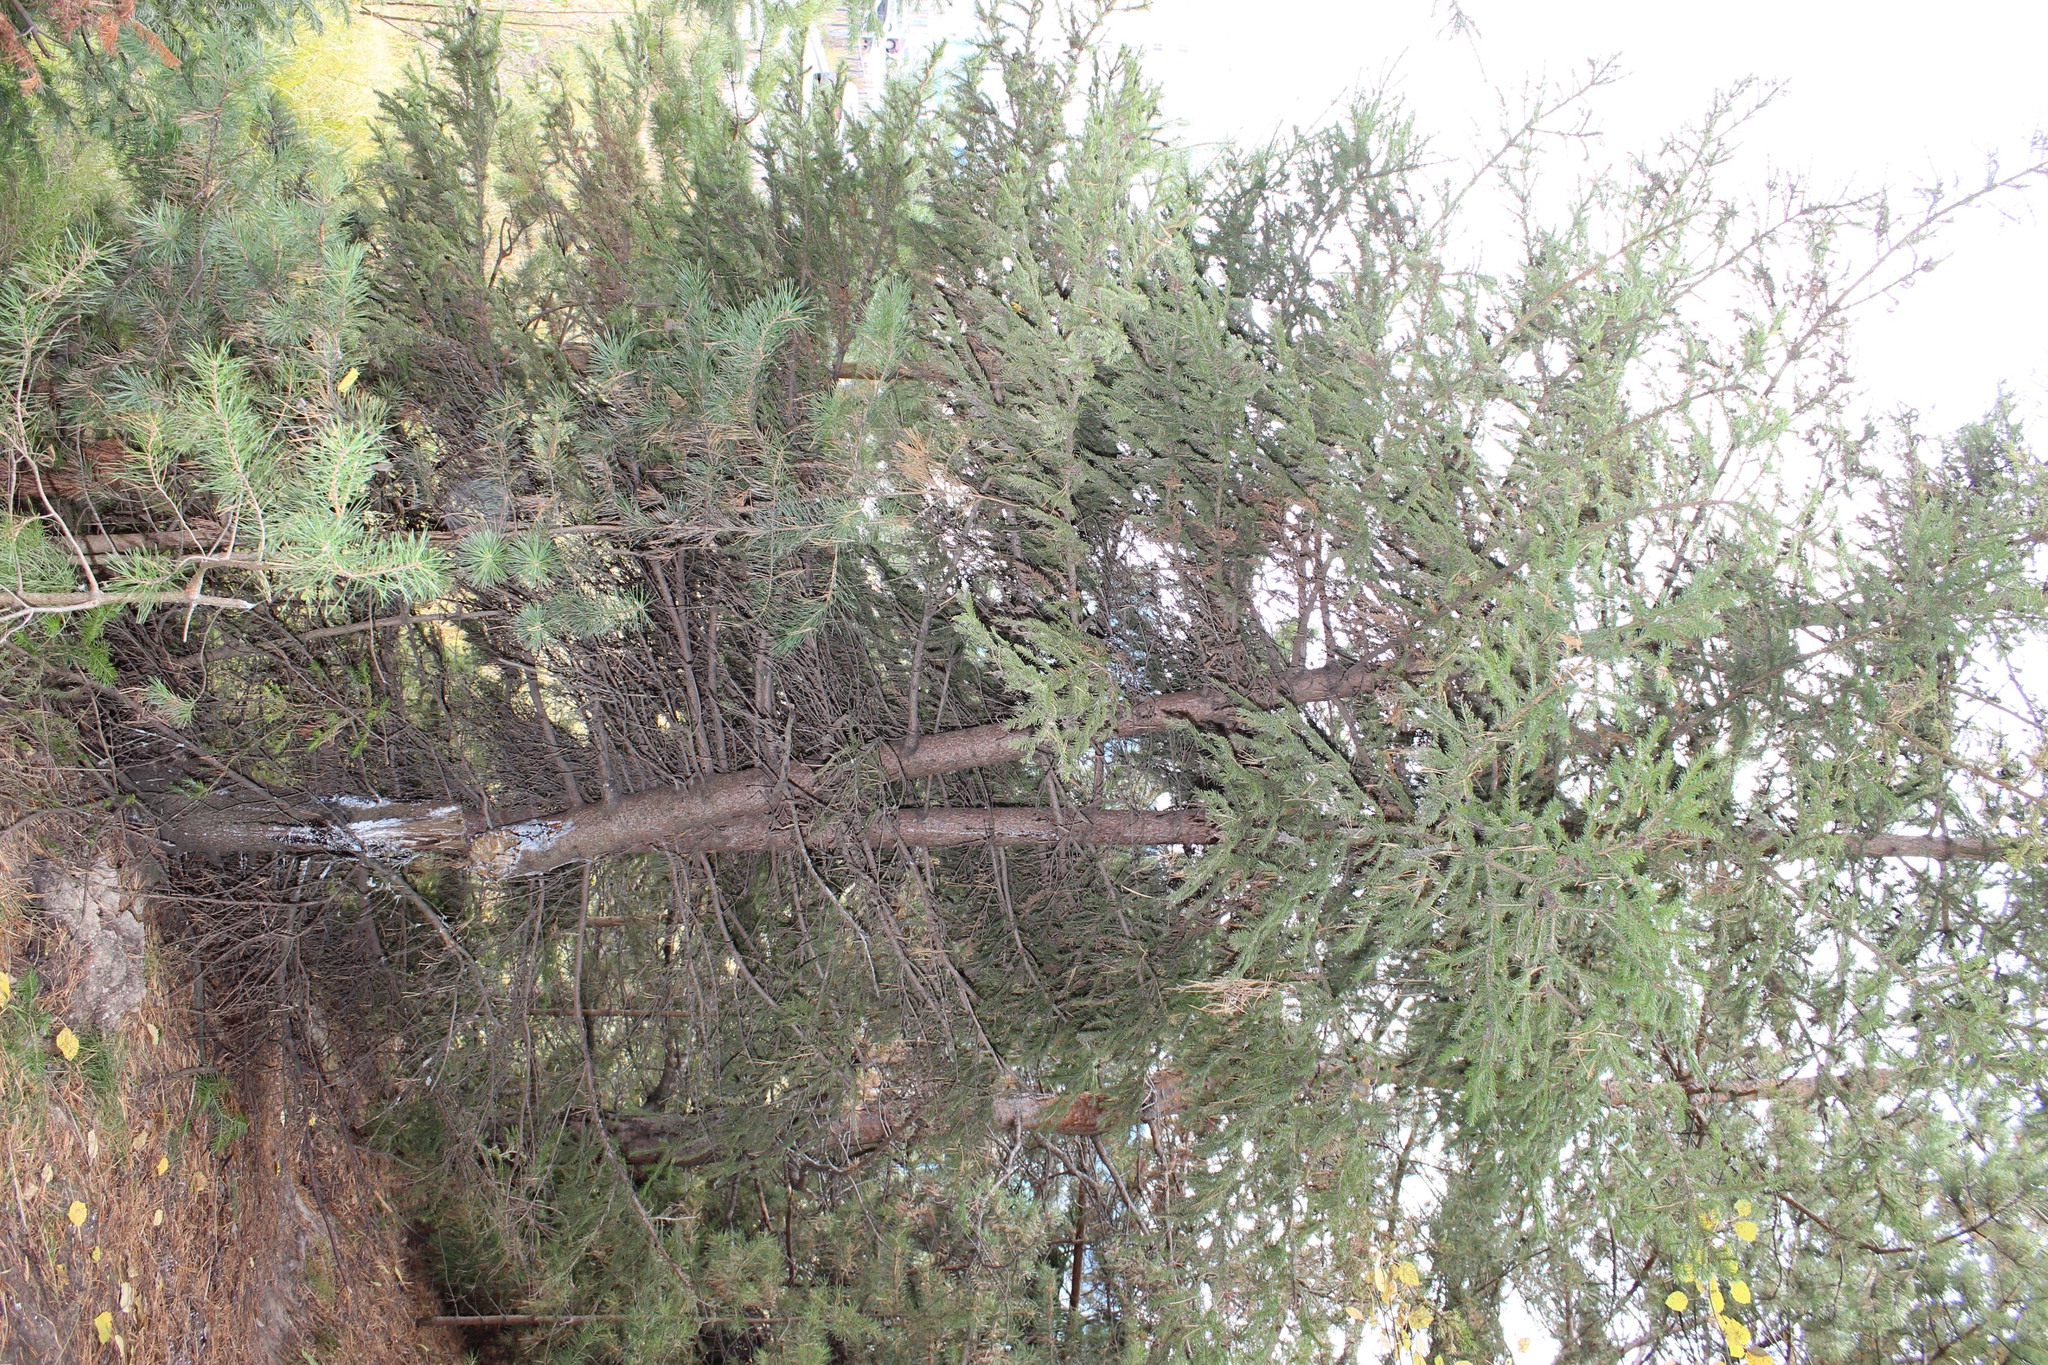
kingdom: Plantae
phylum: Tracheophyta
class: Pinopsida
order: Pinales
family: Pinaceae
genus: Picea
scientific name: Picea obovata
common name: Siberian spruce
